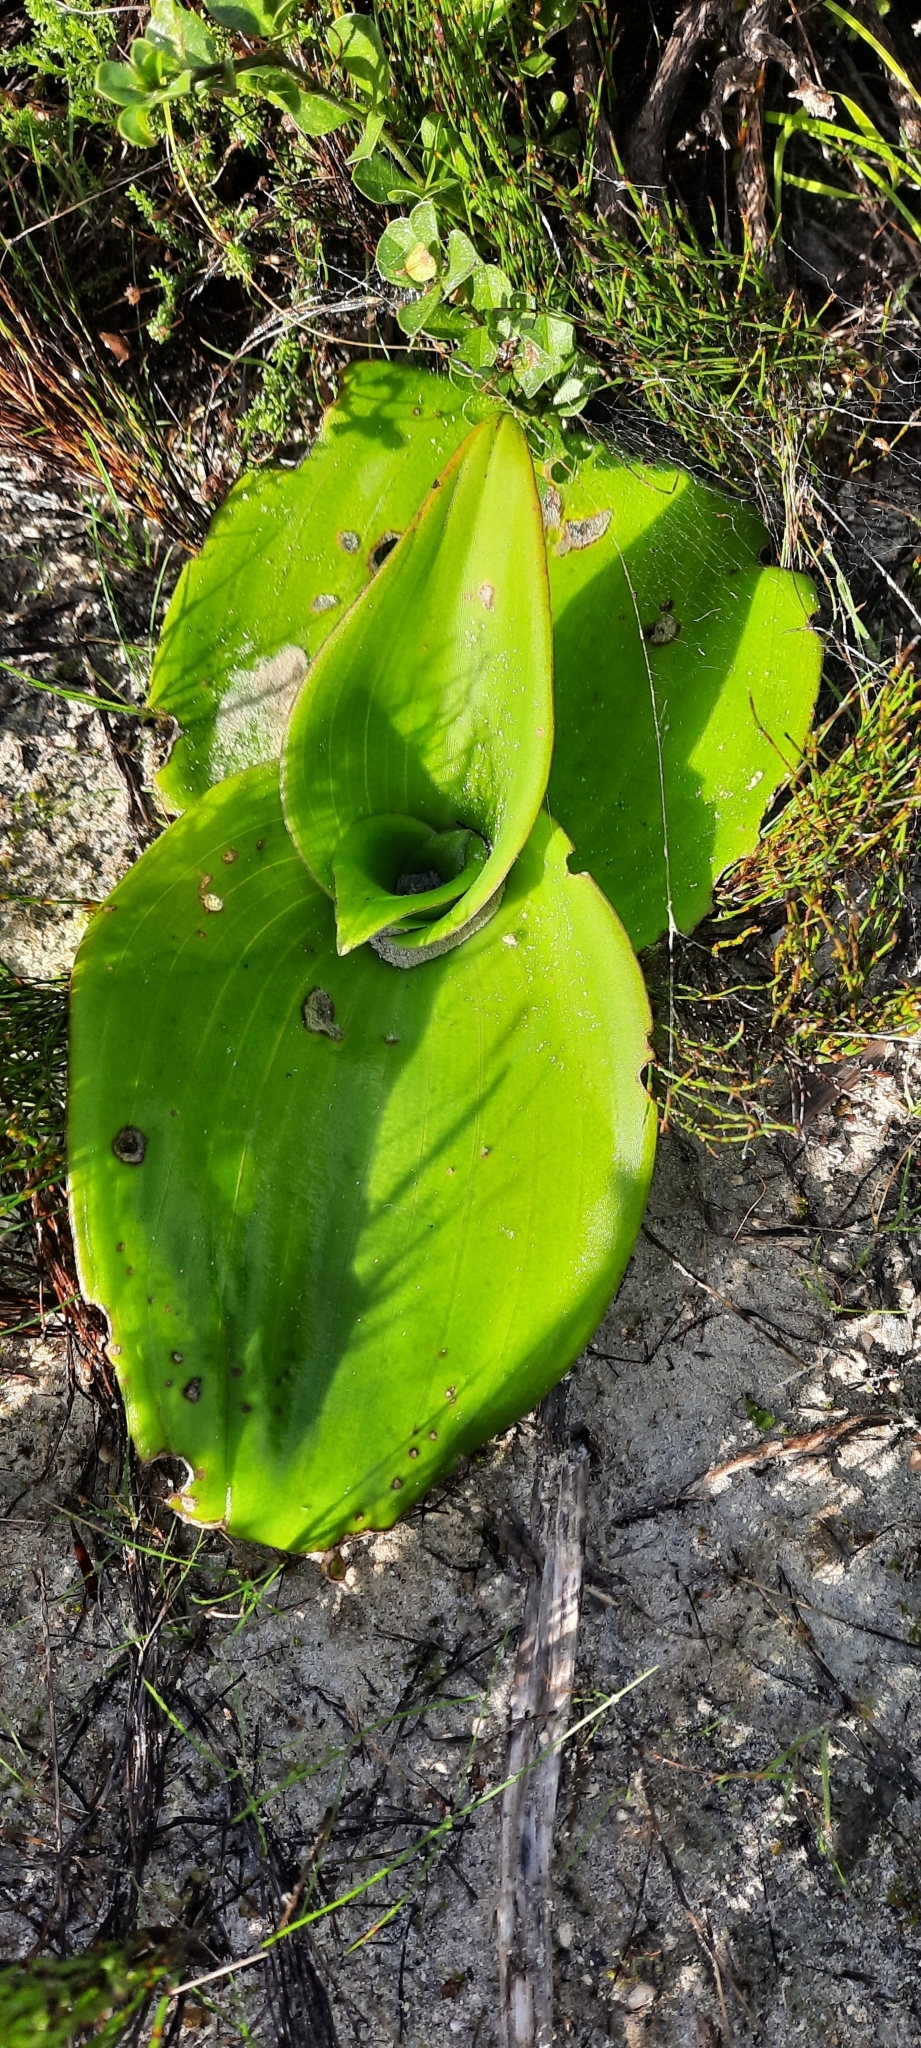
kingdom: Plantae
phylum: Tracheophyta
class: Liliopsida
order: Asparagales
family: Orchidaceae
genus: Satyrium
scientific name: Satyrium carneum
